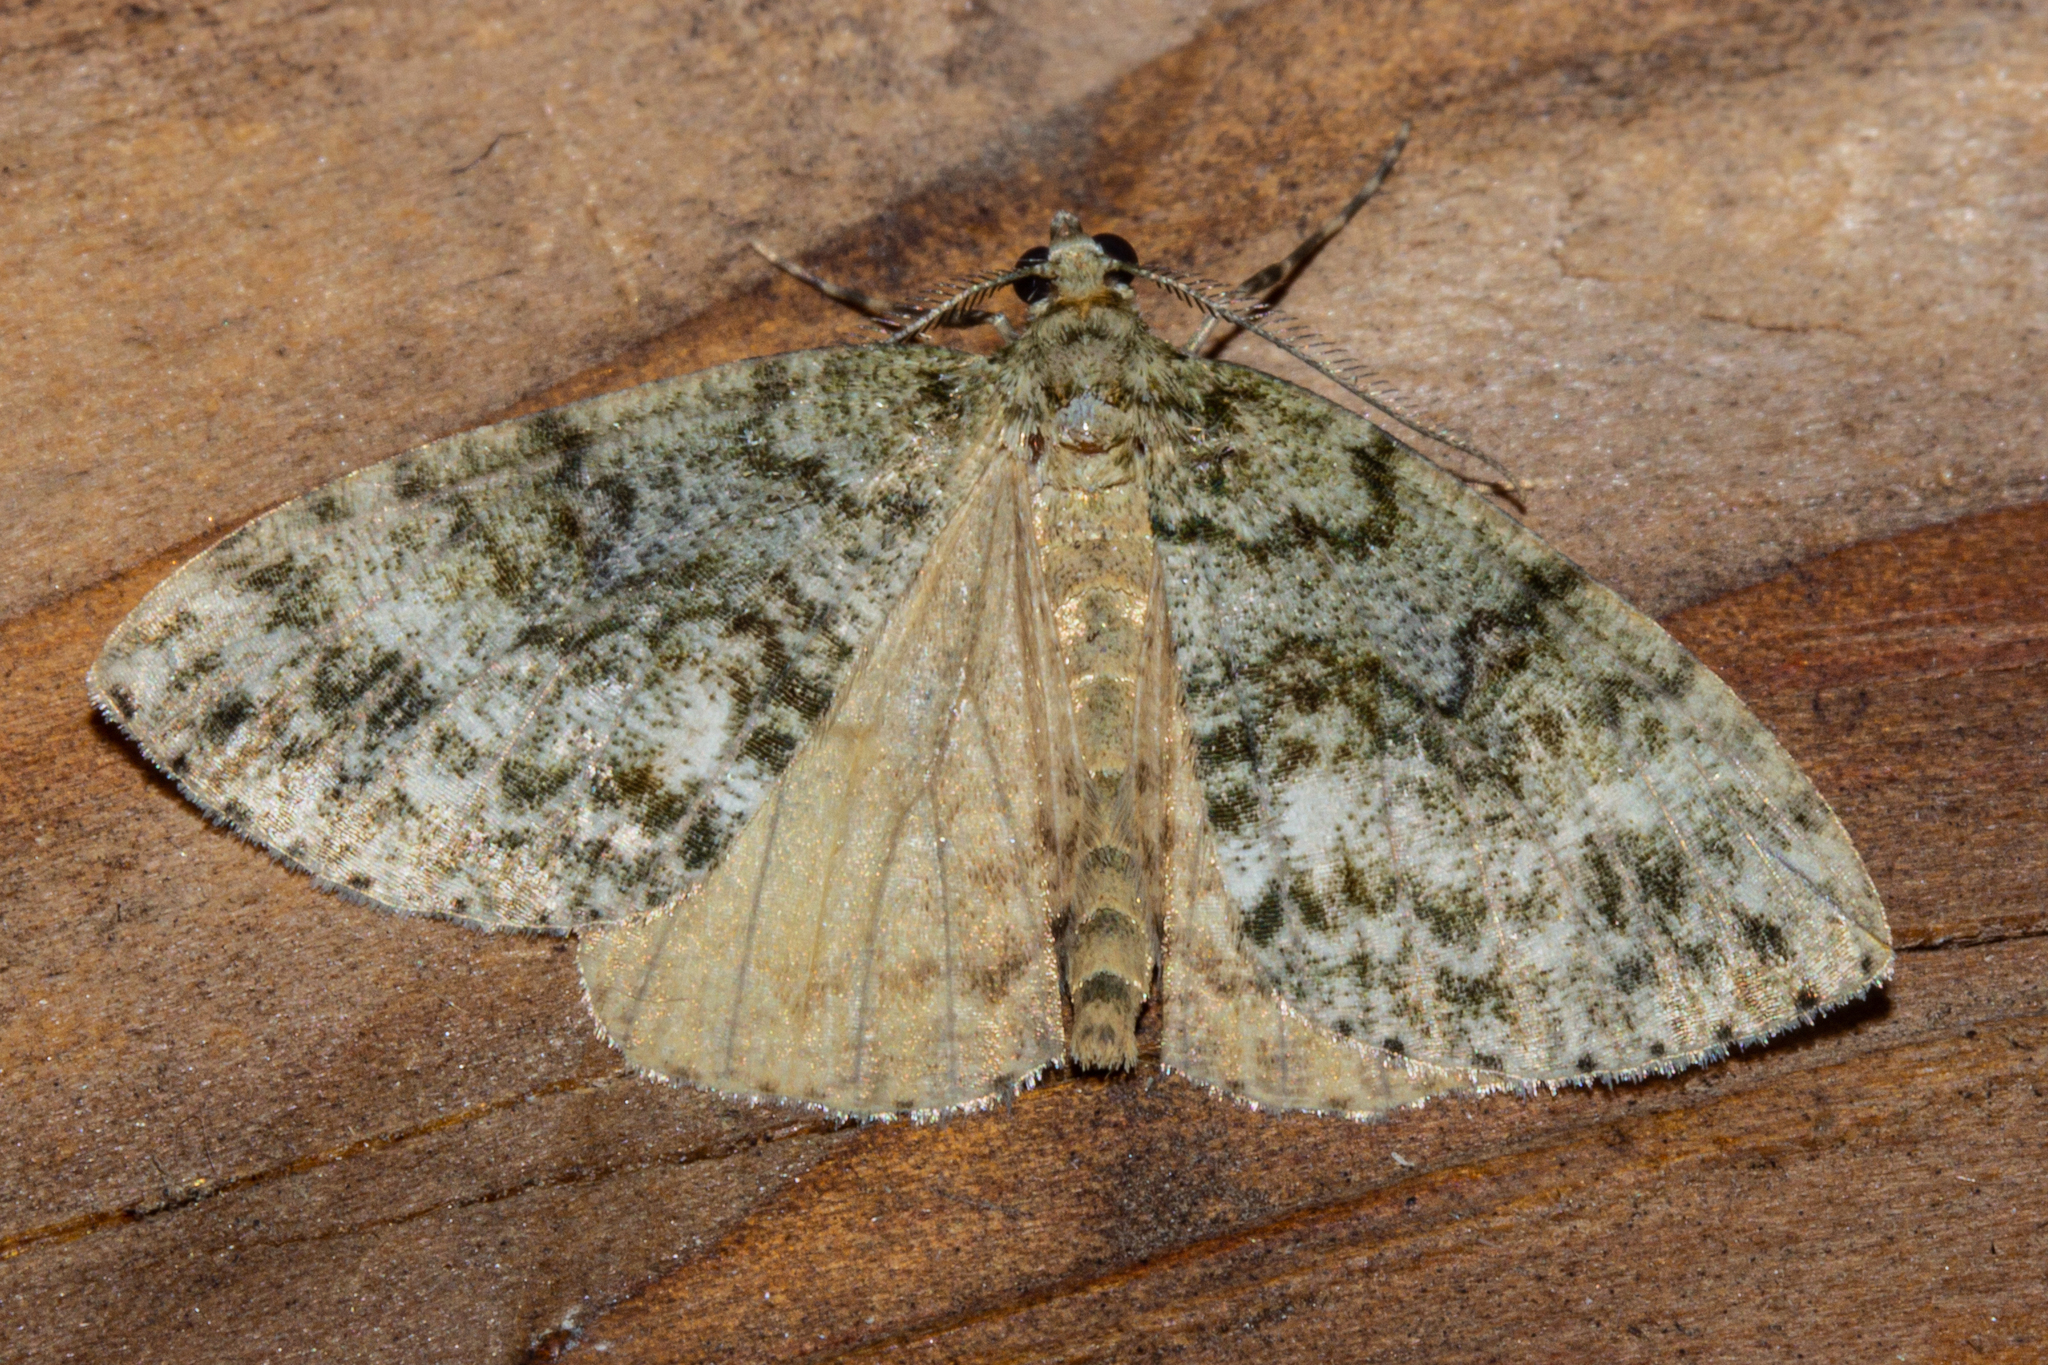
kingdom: Animalia
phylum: Arthropoda
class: Insecta
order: Lepidoptera
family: Geometridae
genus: Pseudocoremia
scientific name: Pseudocoremia indistincta
